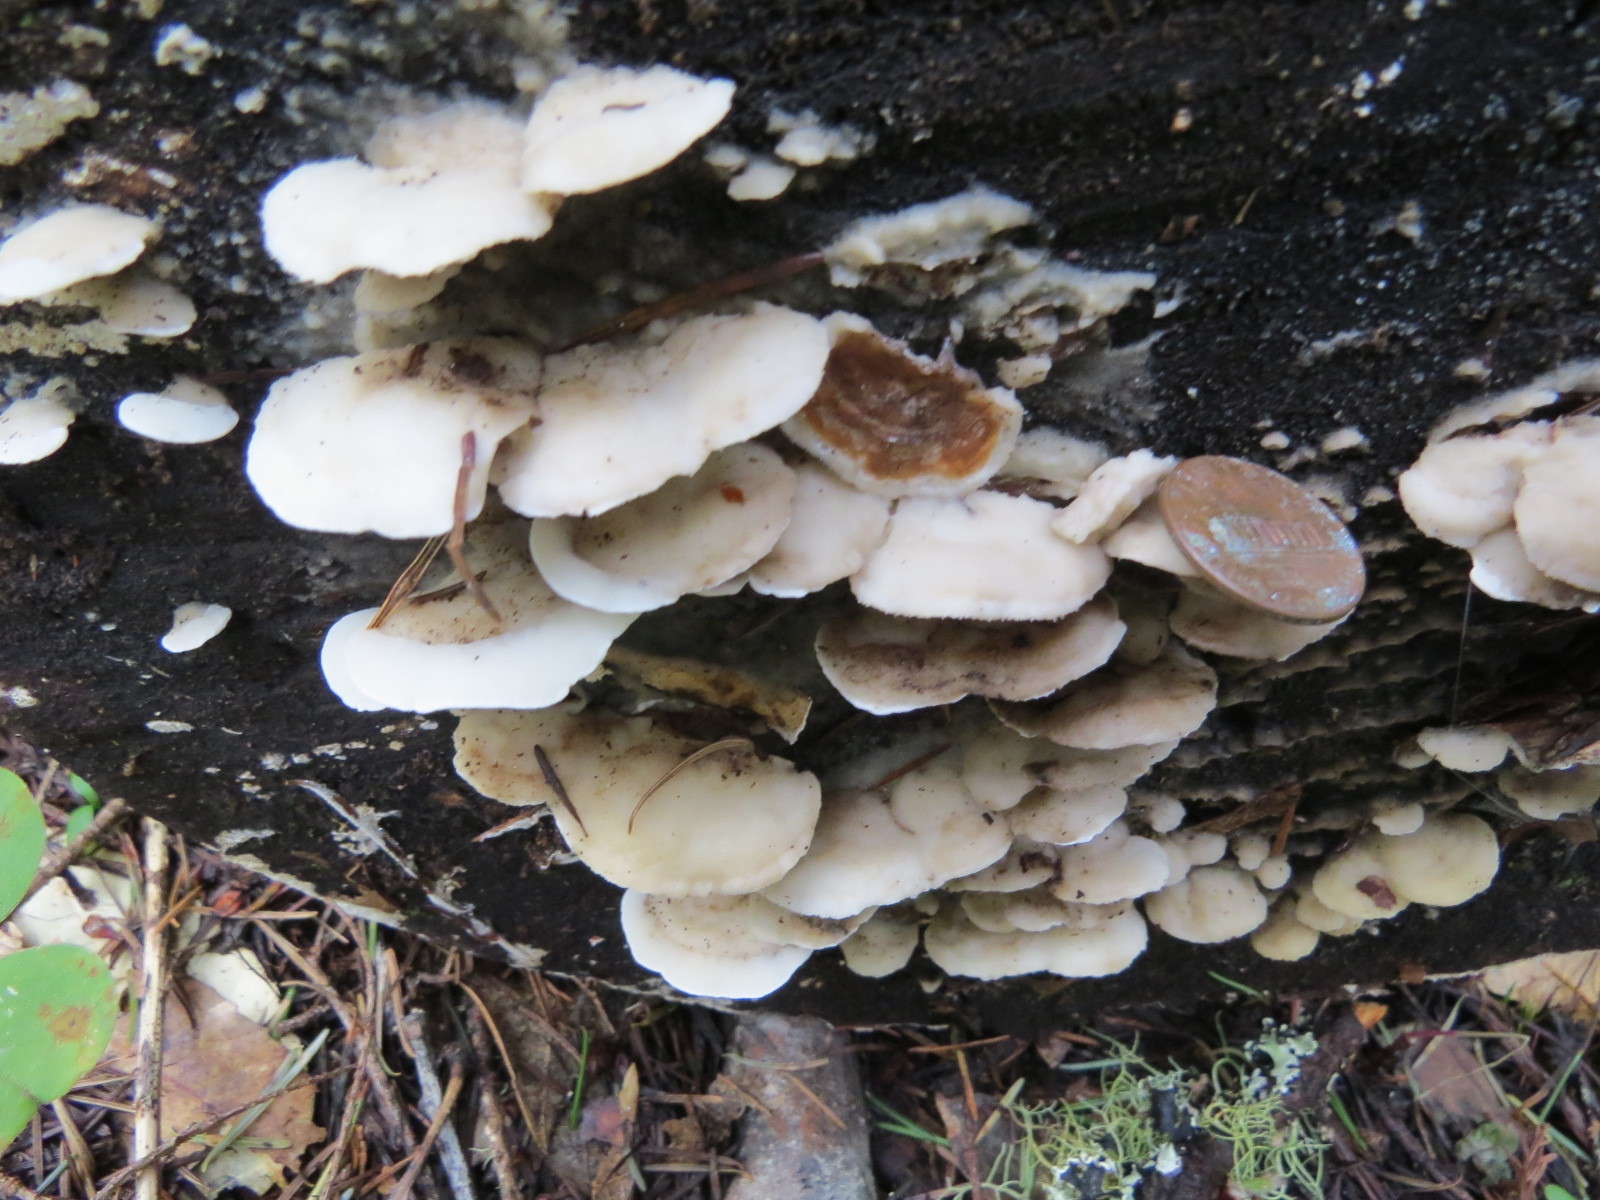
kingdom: Fungi
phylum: Basidiomycota
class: Agaricomycetes
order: Polyporales
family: Irpicaceae
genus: Vitreoporus
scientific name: Vitreoporus dichrous
